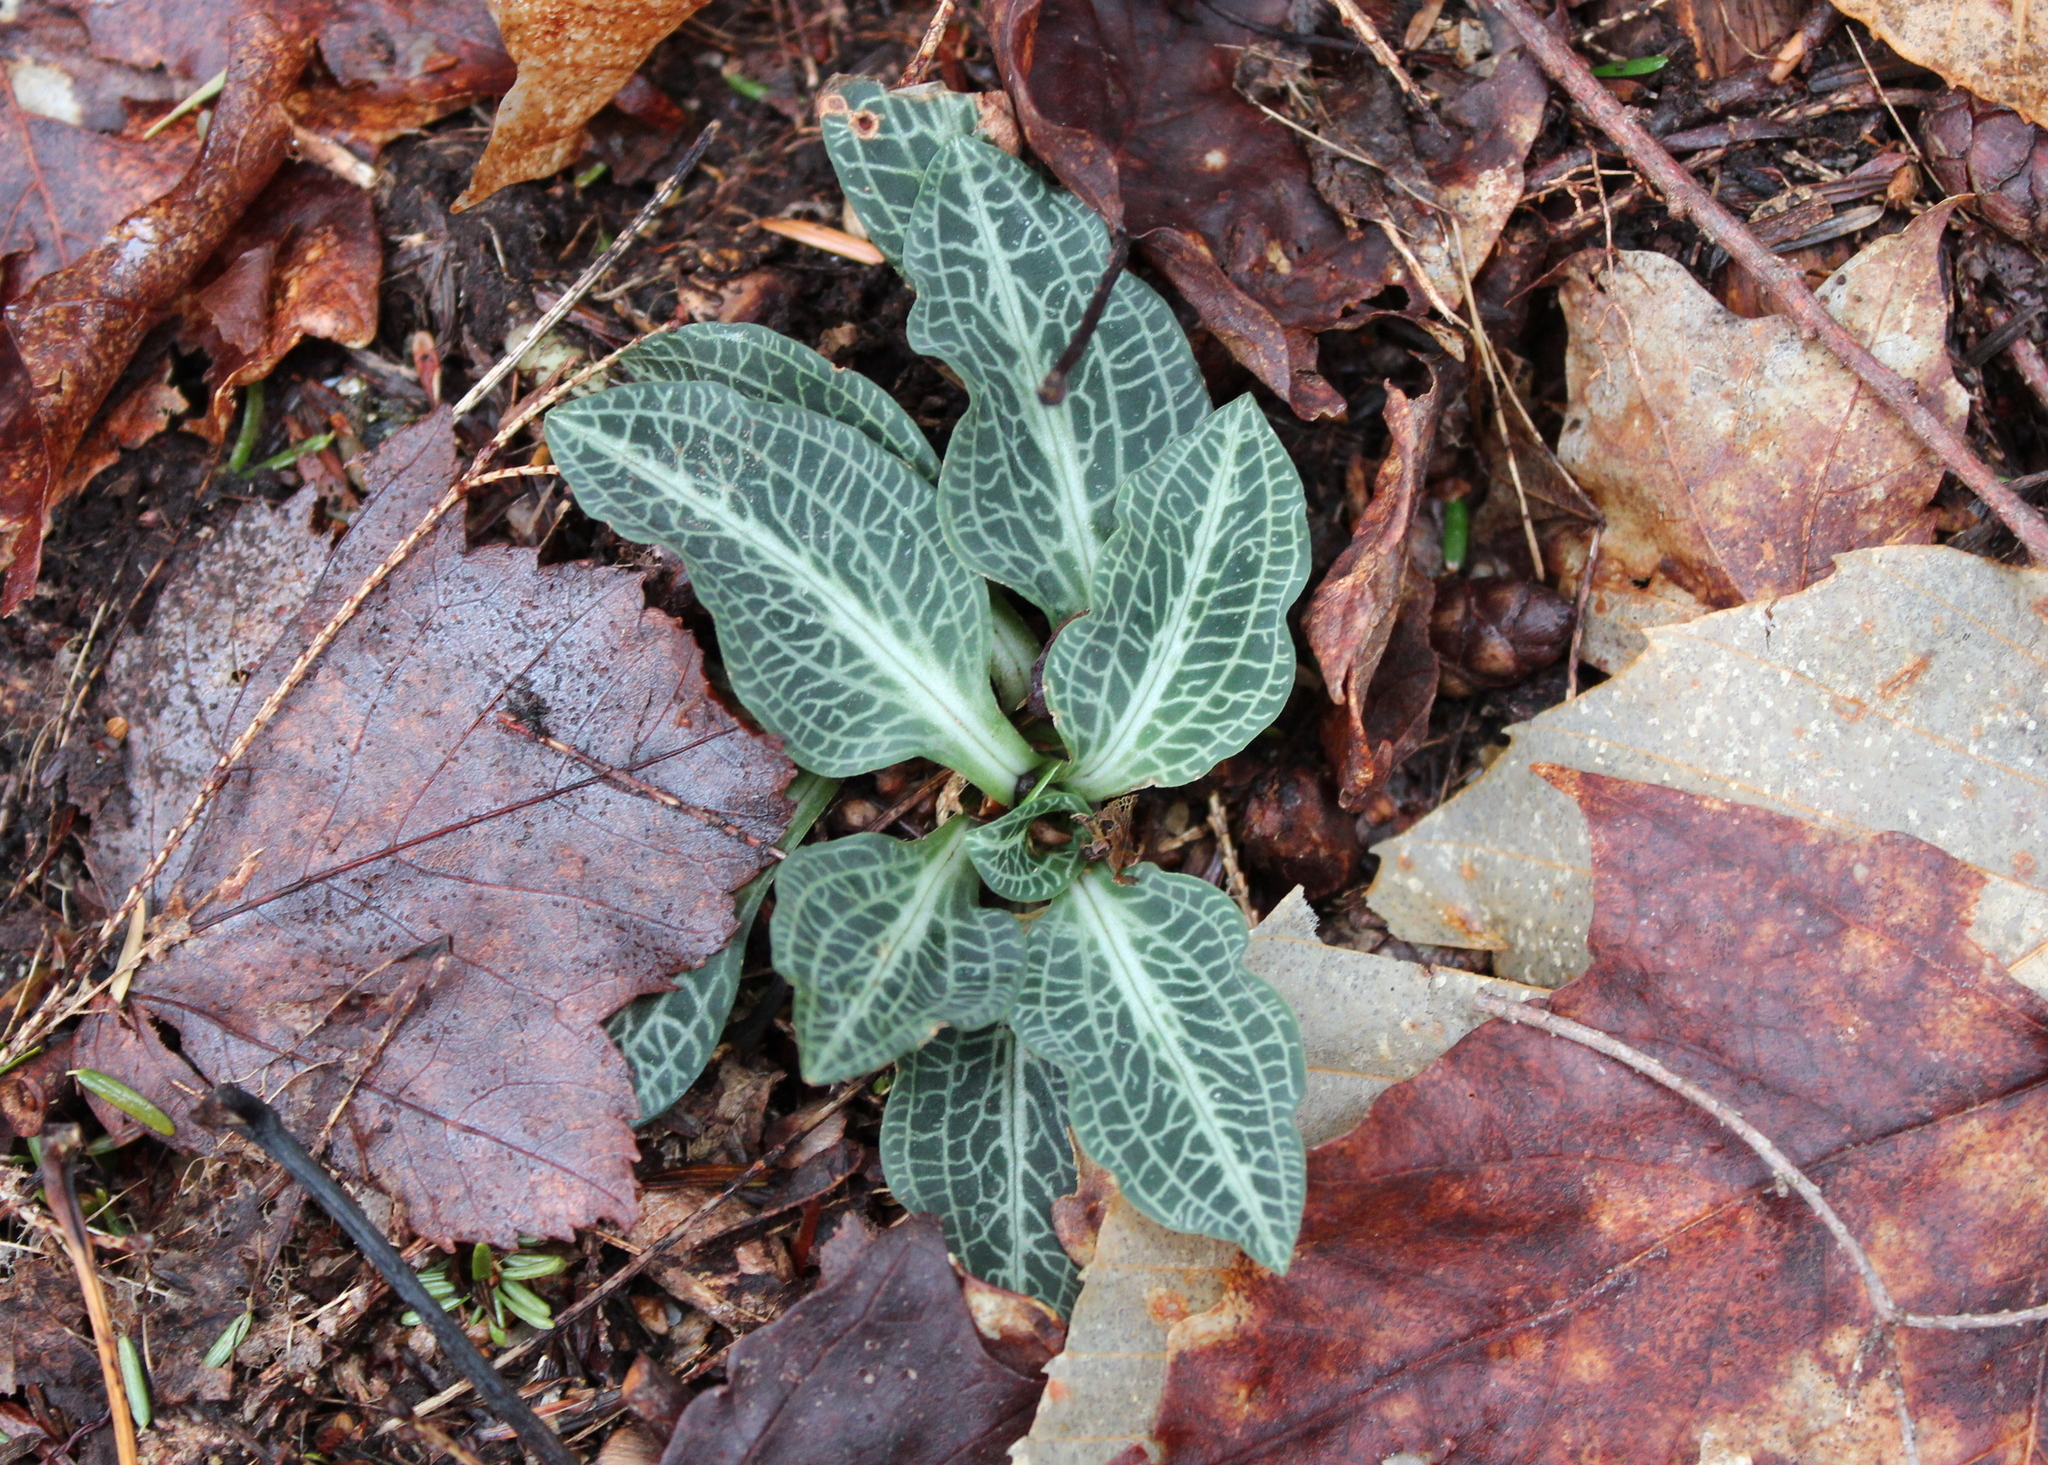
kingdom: Plantae
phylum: Tracheophyta
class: Liliopsida
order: Asparagales
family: Orchidaceae
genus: Goodyera
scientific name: Goodyera pubescens
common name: Downy rattlesnake-plantain
